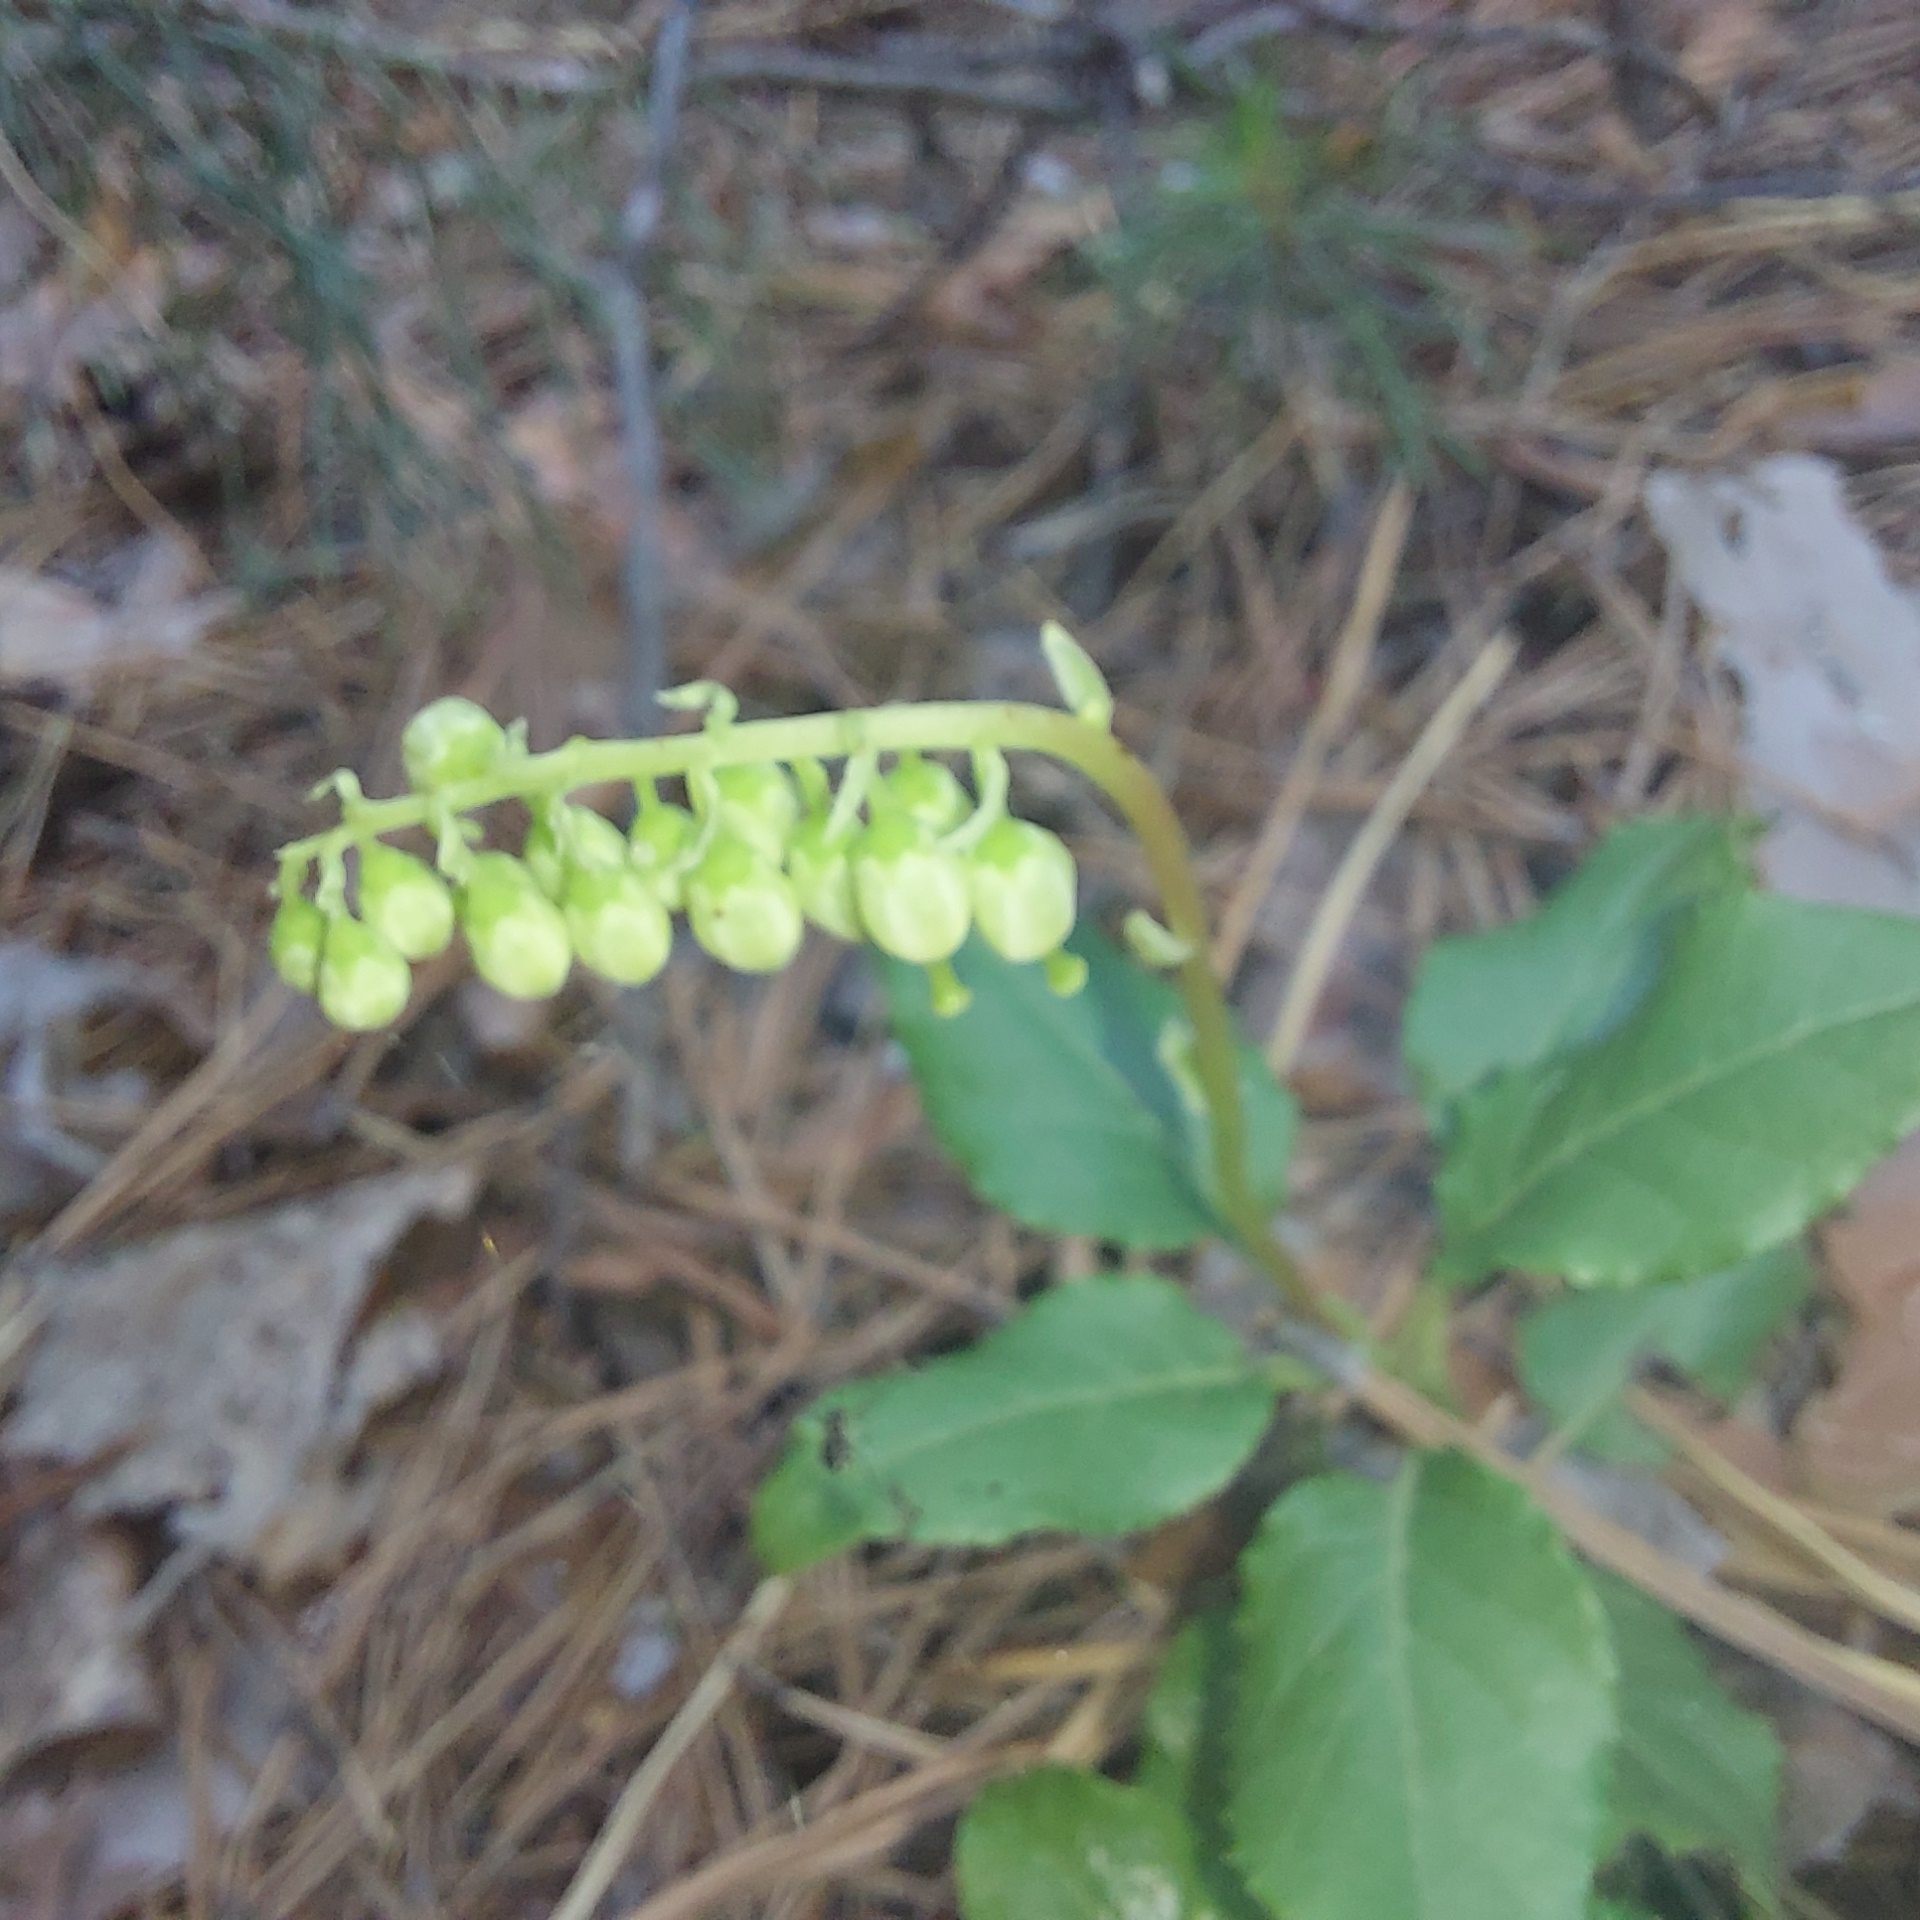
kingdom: Plantae
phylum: Tracheophyta
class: Magnoliopsida
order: Ericales
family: Ericaceae
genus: Orthilia
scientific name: Orthilia secunda
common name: One-sided orthilia
